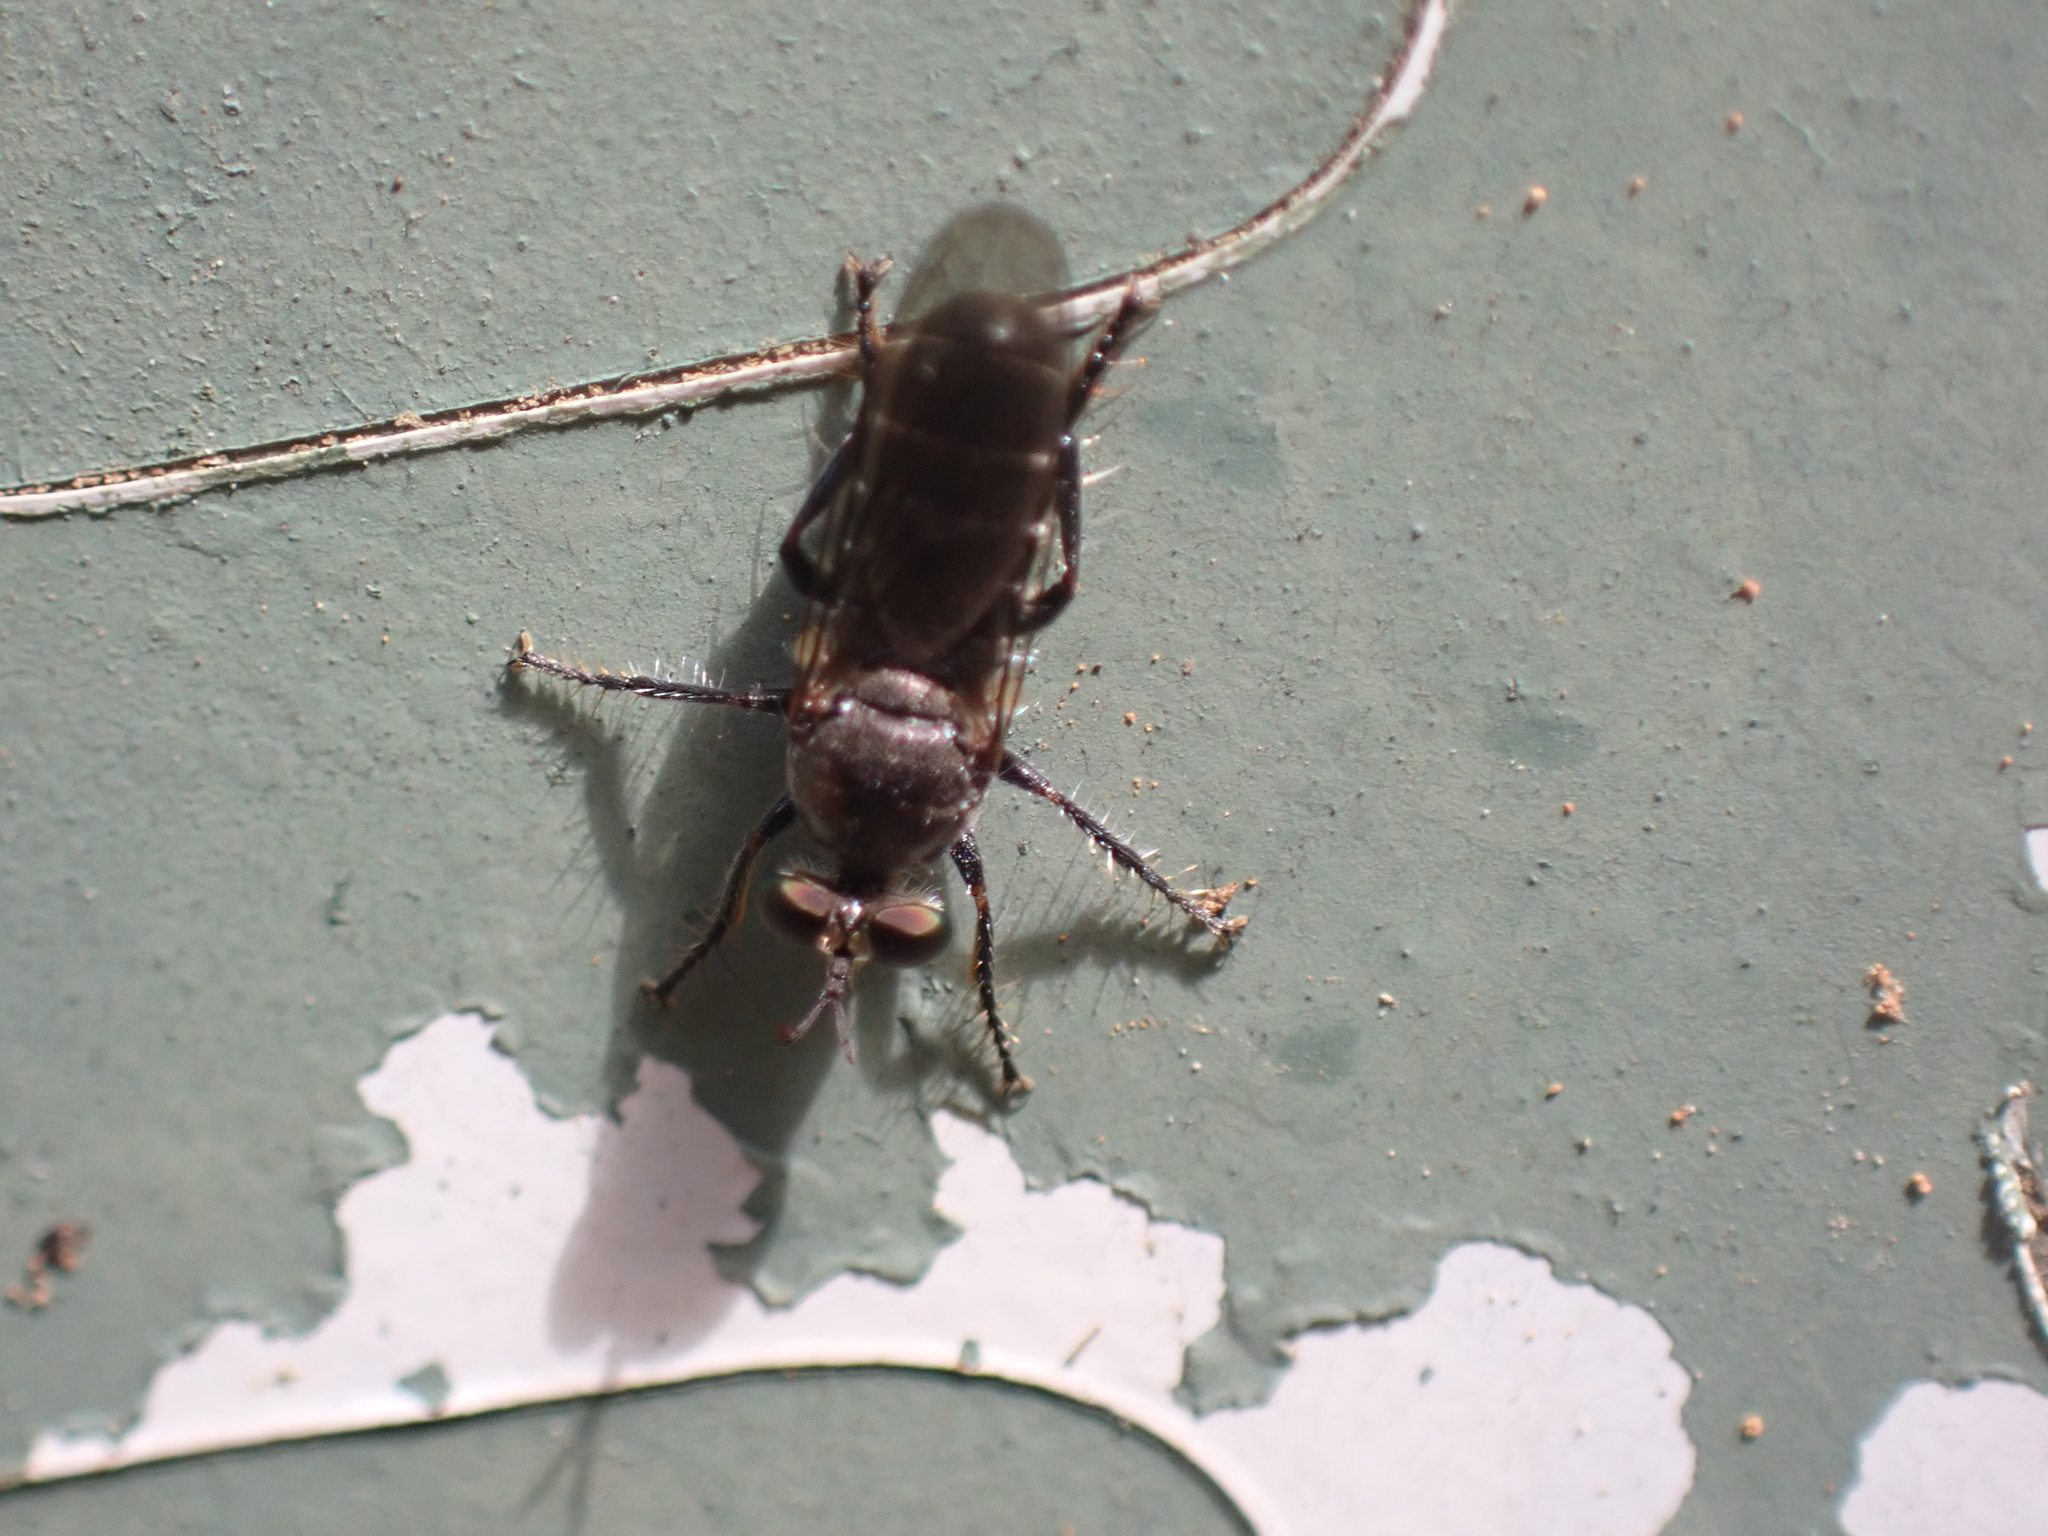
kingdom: Animalia
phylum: Arthropoda
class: Insecta
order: Diptera
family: Asilidae
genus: Atomosia
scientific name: Atomosia puella
